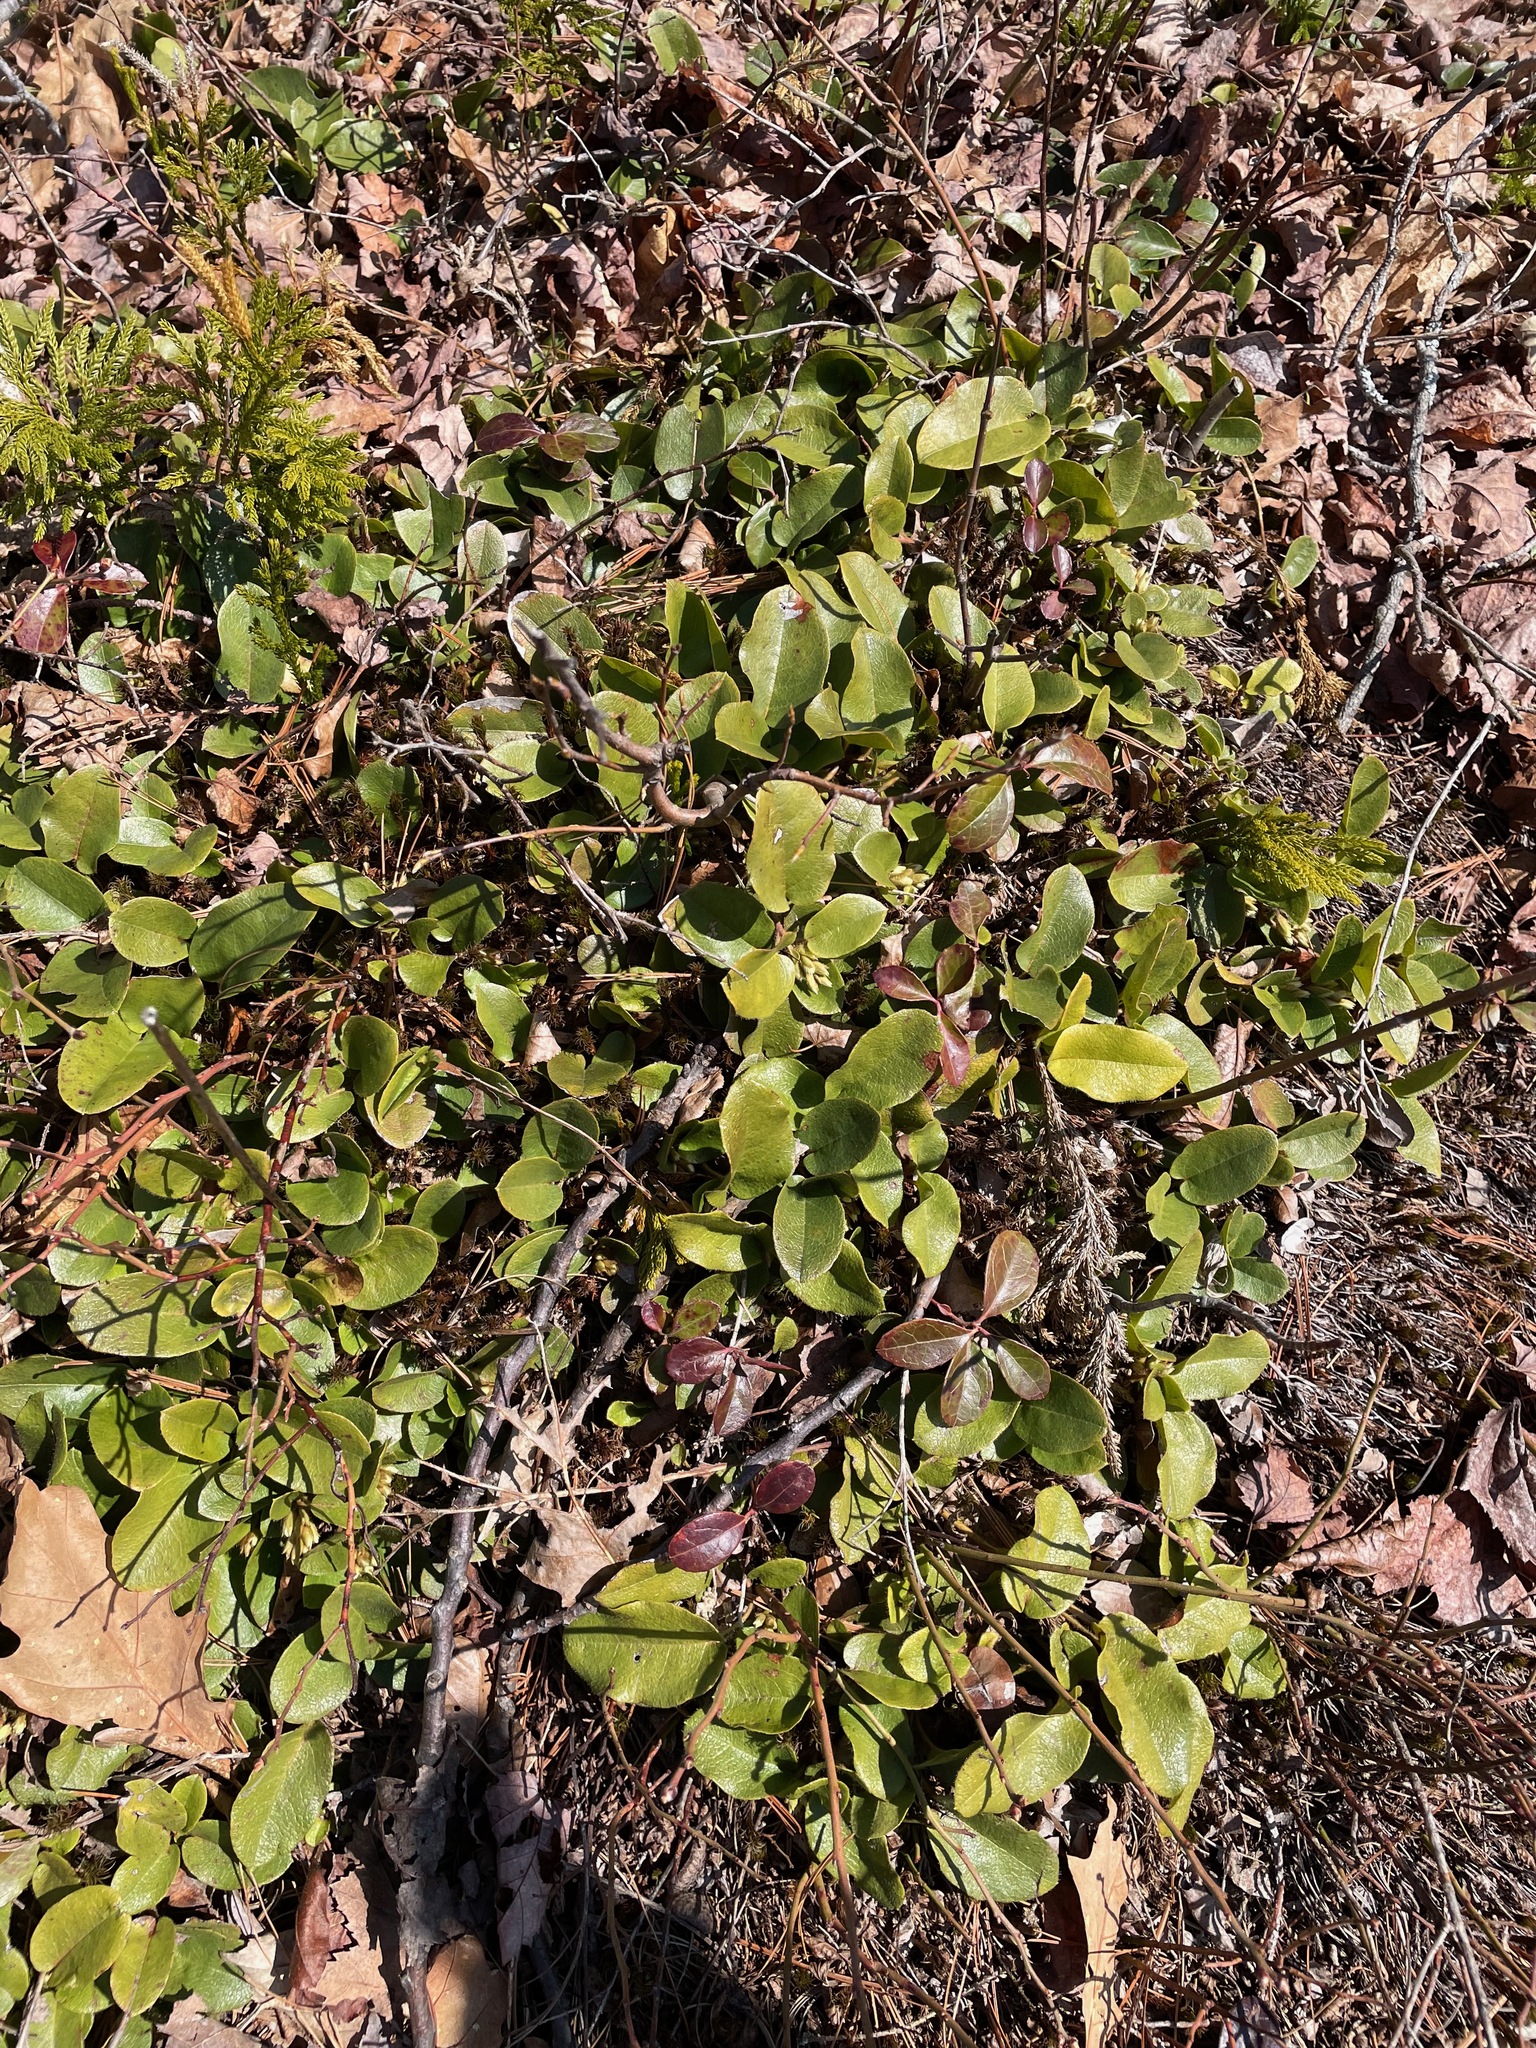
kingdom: Plantae
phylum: Tracheophyta
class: Magnoliopsida
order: Ericales
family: Ericaceae
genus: Epigaea
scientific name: Epigaea repens
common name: Gravelroot
